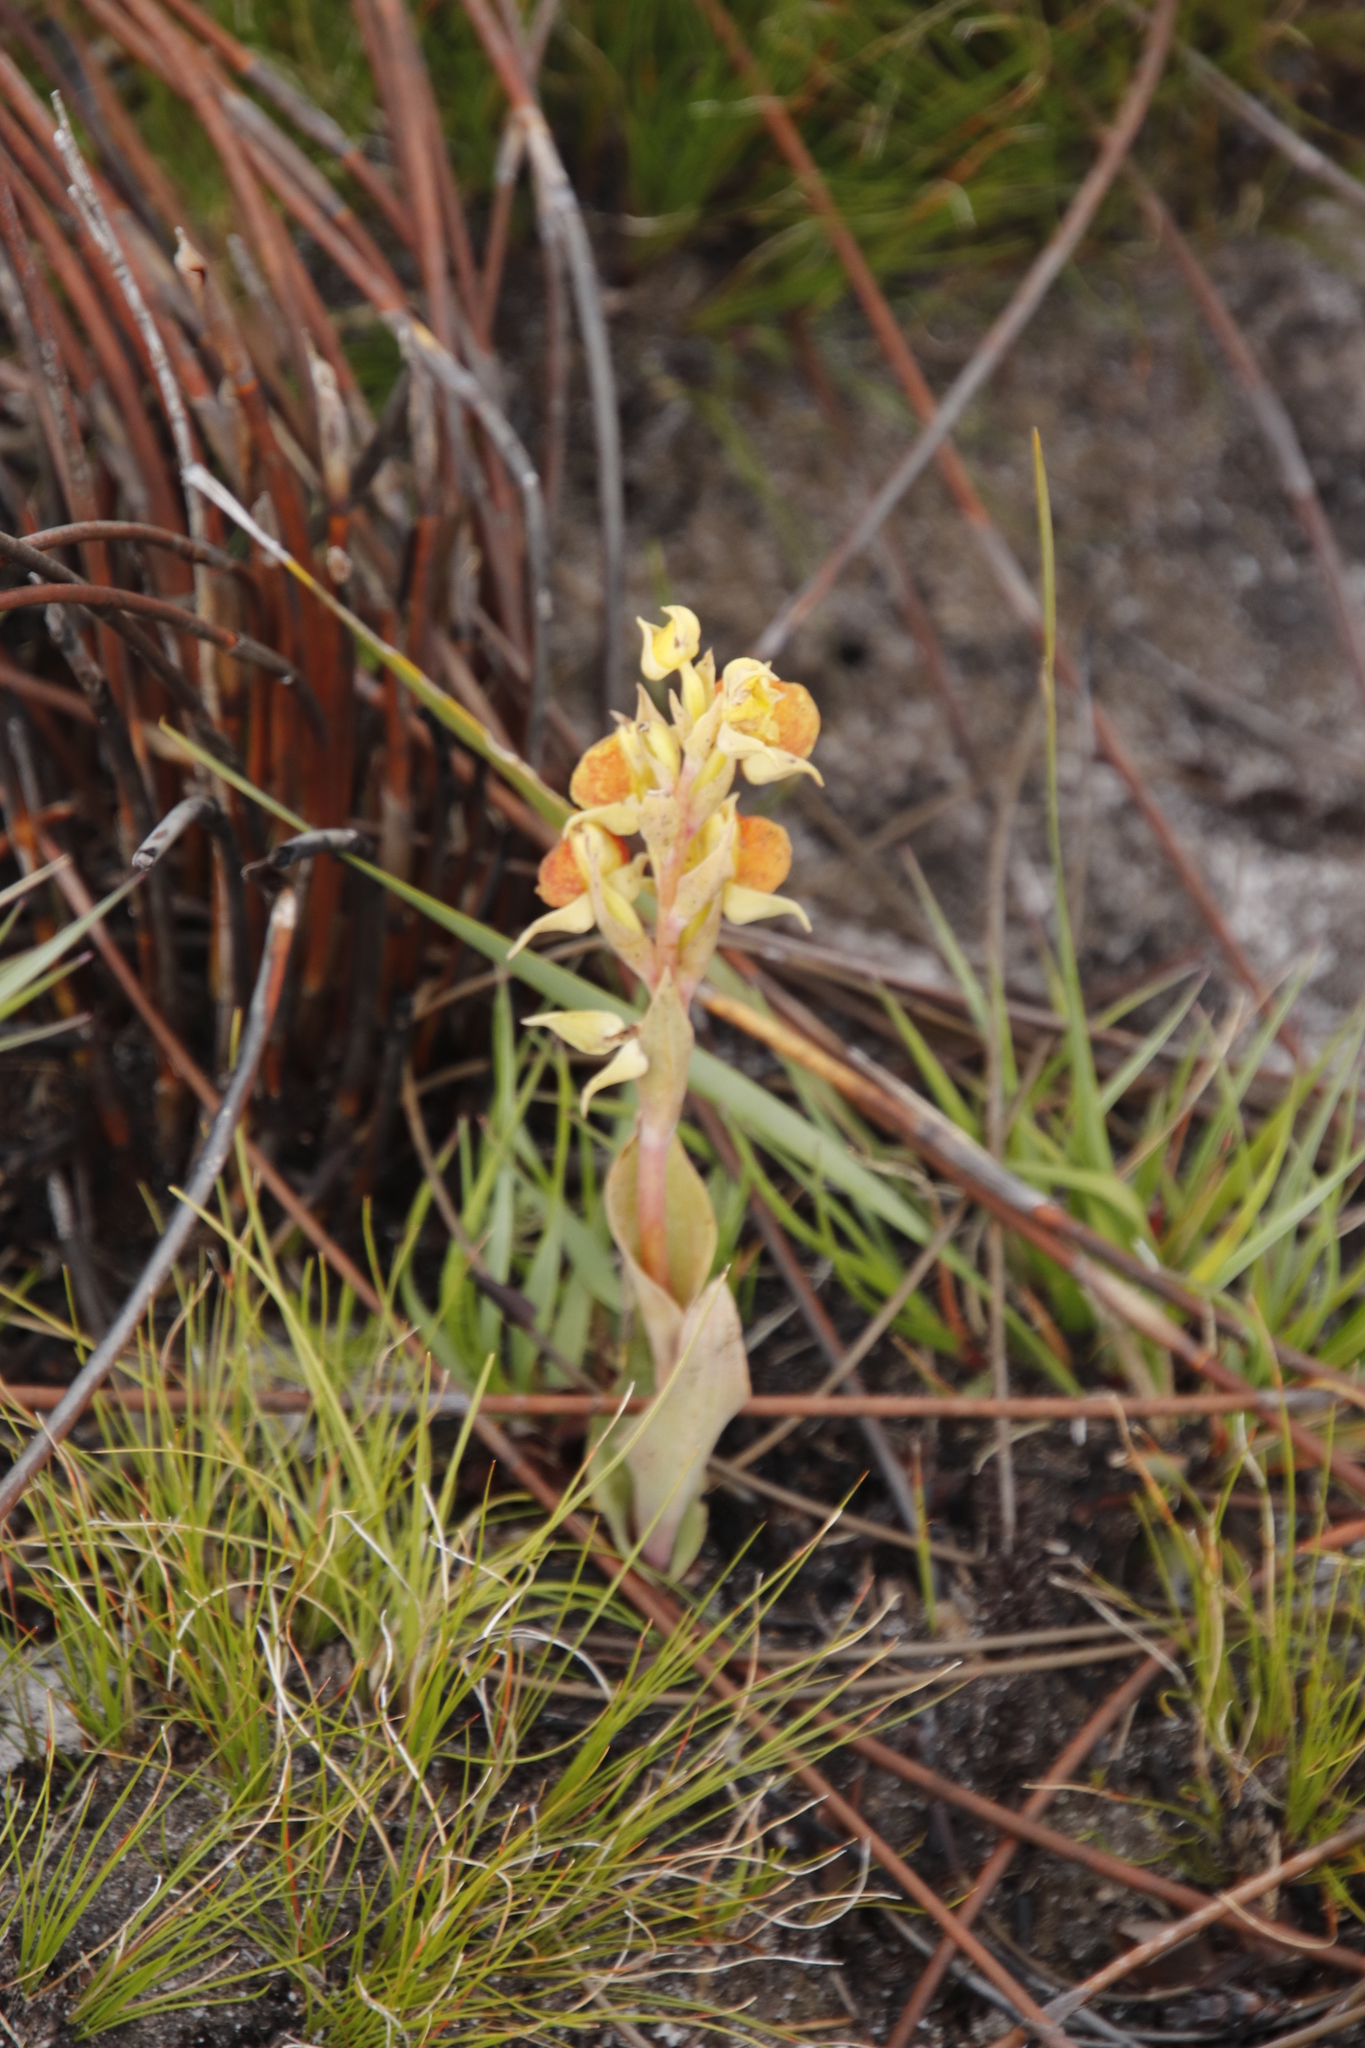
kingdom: Plantae
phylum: Tracheophyta
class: Liliopsida
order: Asparagales
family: Orchidaceae
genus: Pterygodium
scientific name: Pterygodium acutifolium
